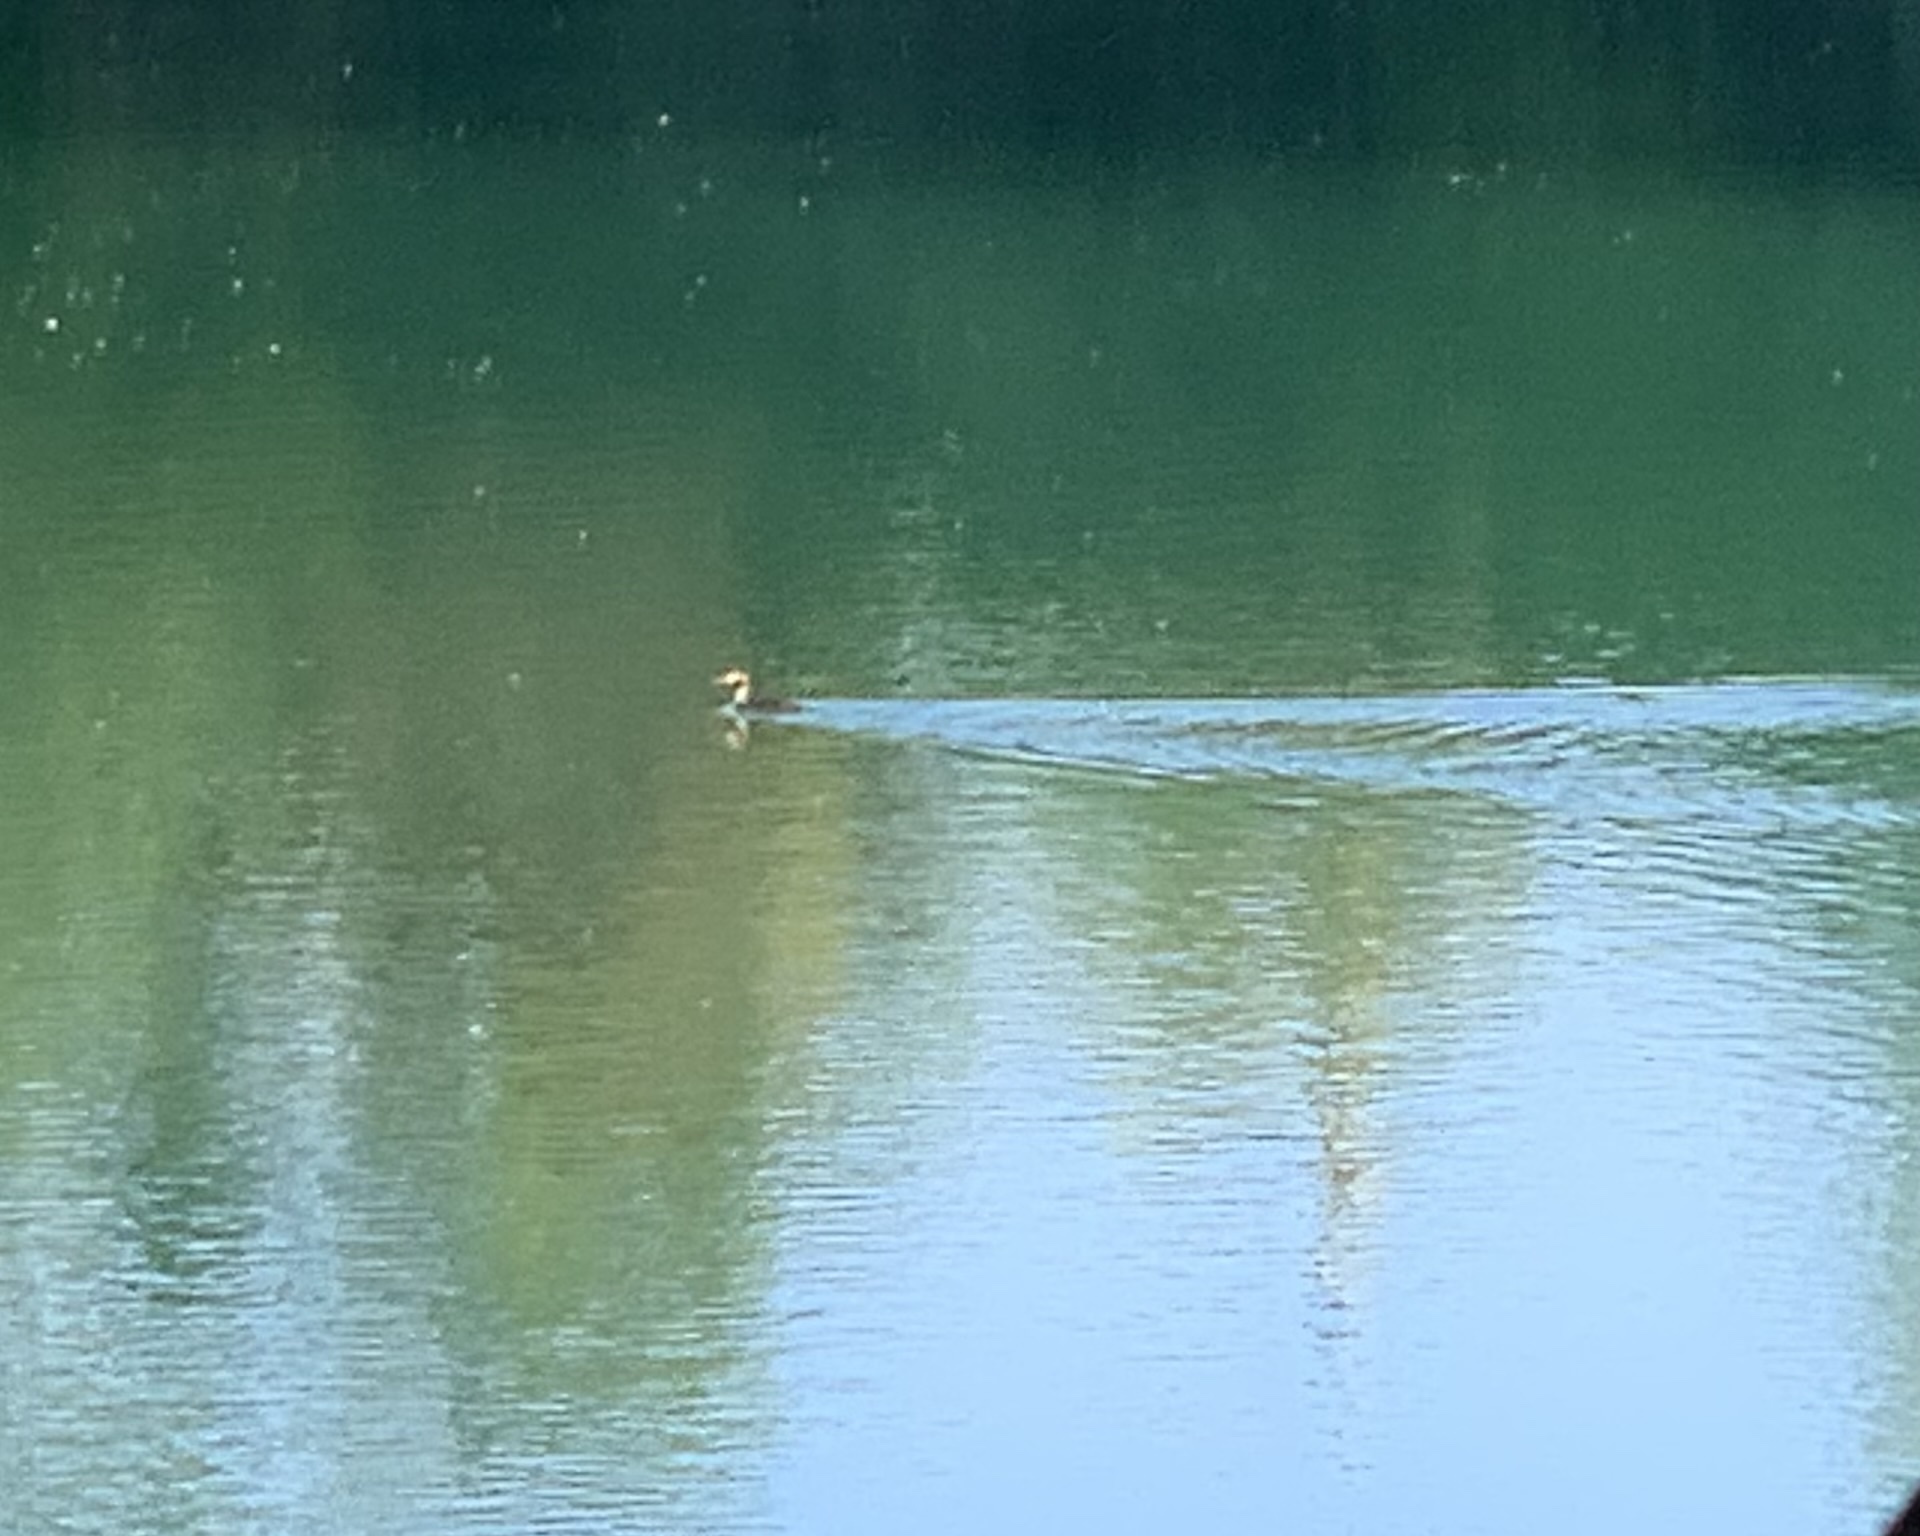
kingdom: Animalia
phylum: Chordata
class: Aves
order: Podicipediformes
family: Podicipedidae
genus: Podiceps
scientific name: Podiceps cristatus
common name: Great crested grebe
